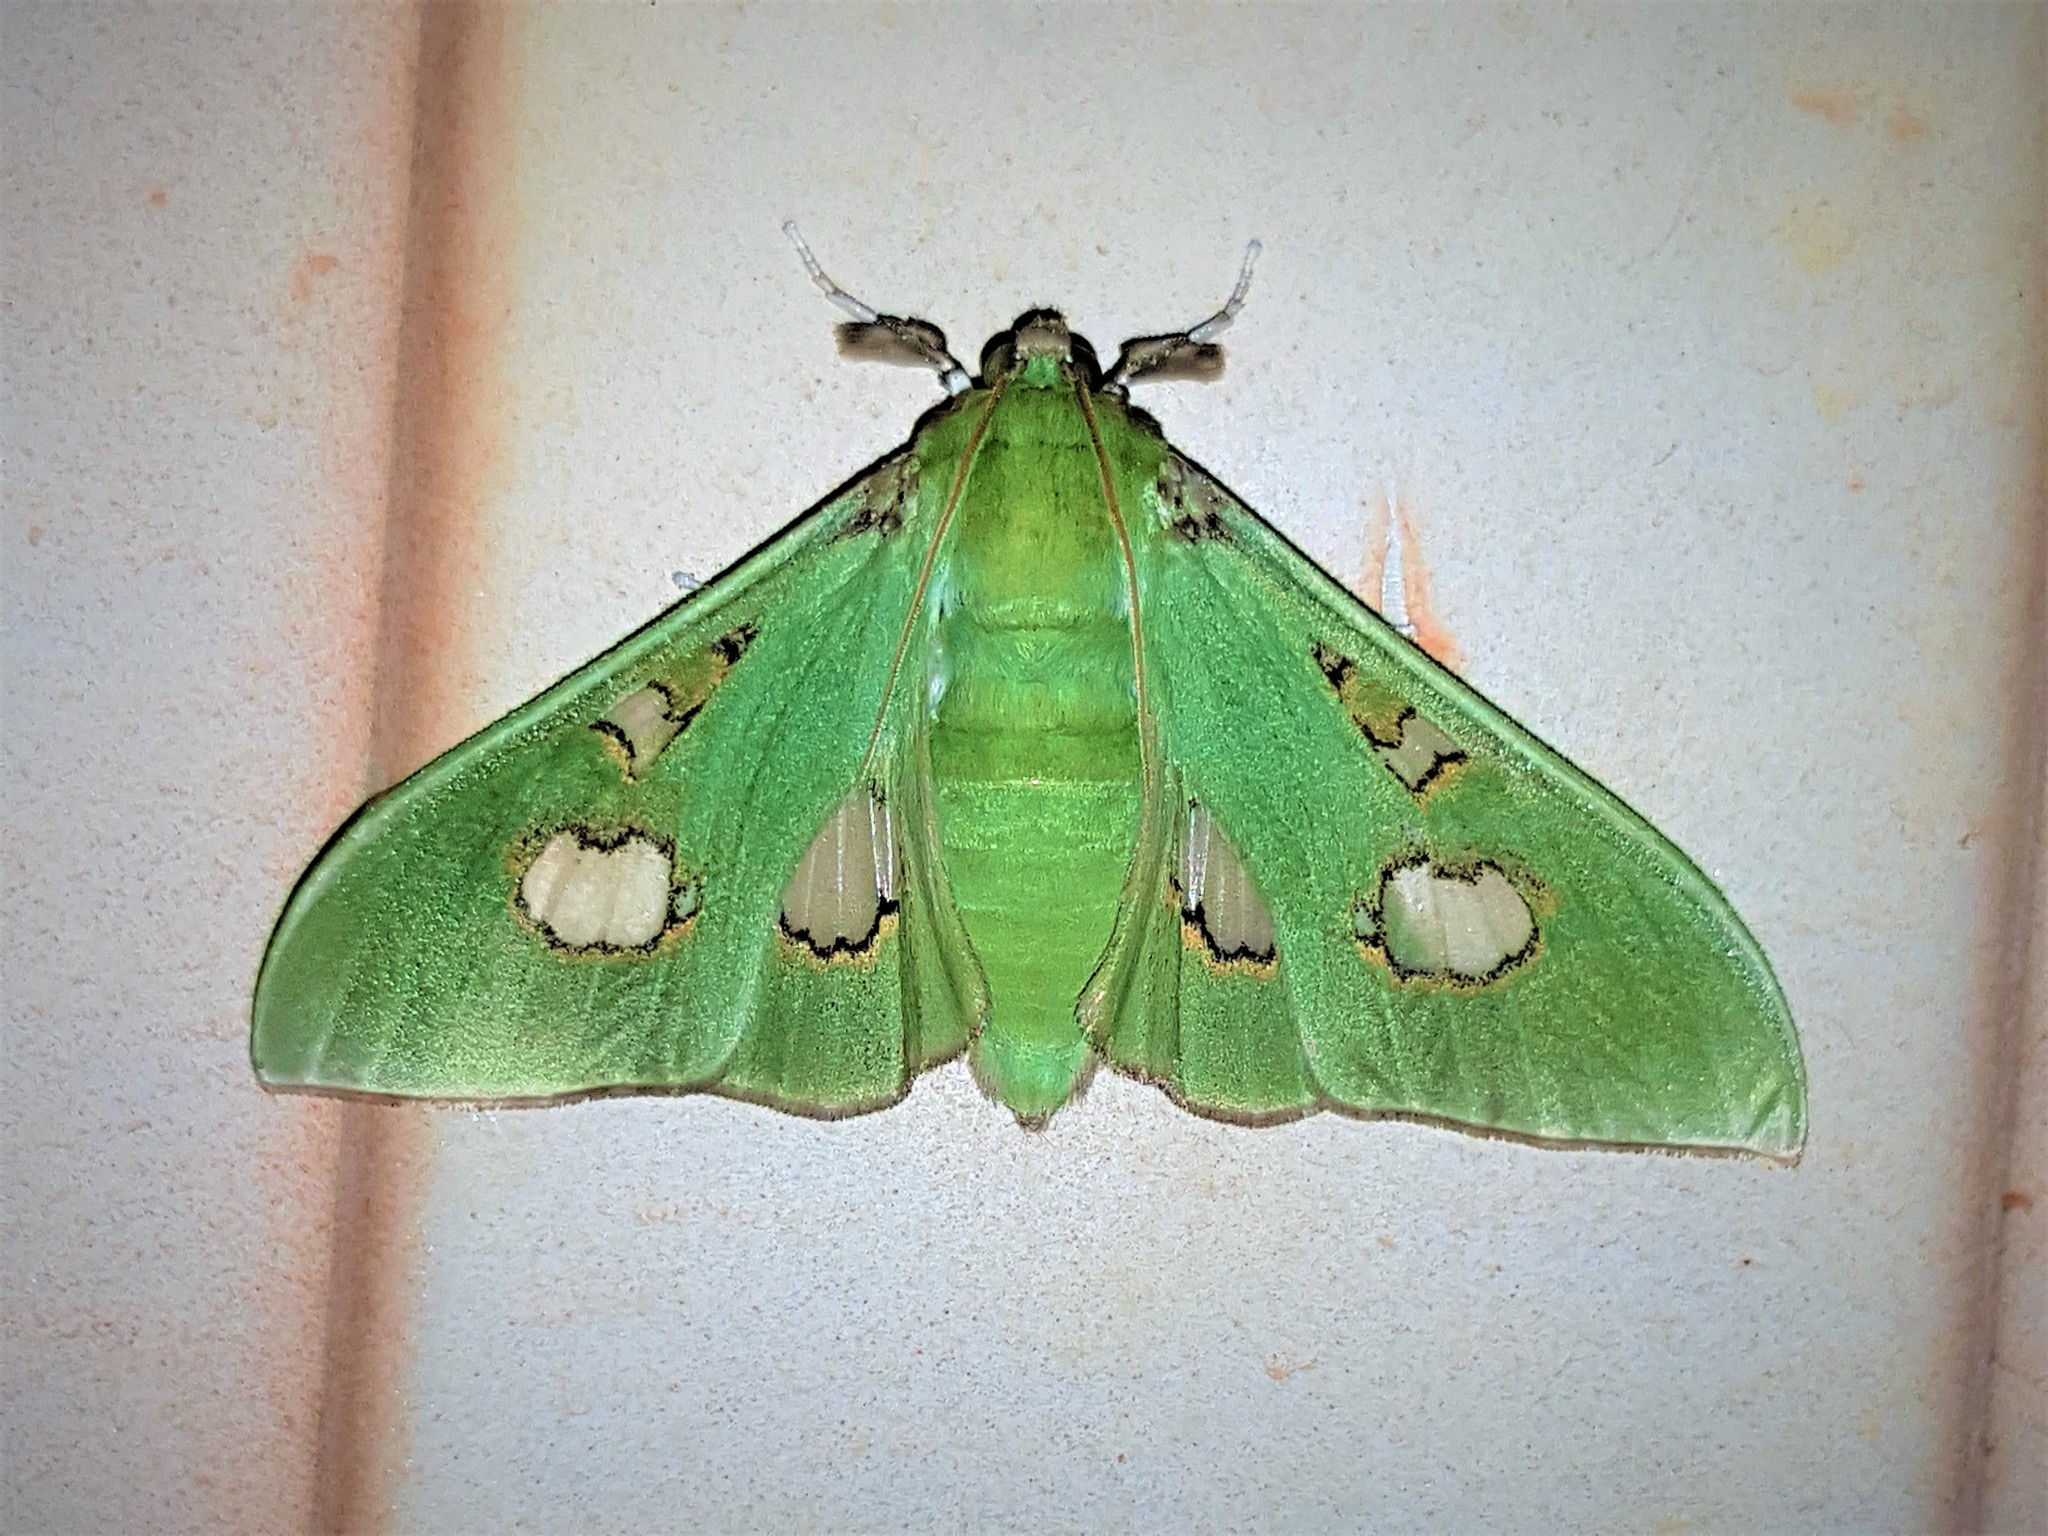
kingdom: Animalia
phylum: Arthropoda
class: Insecta
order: Lepidoptera
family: Crambidae
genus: Siga
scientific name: Siga liris
